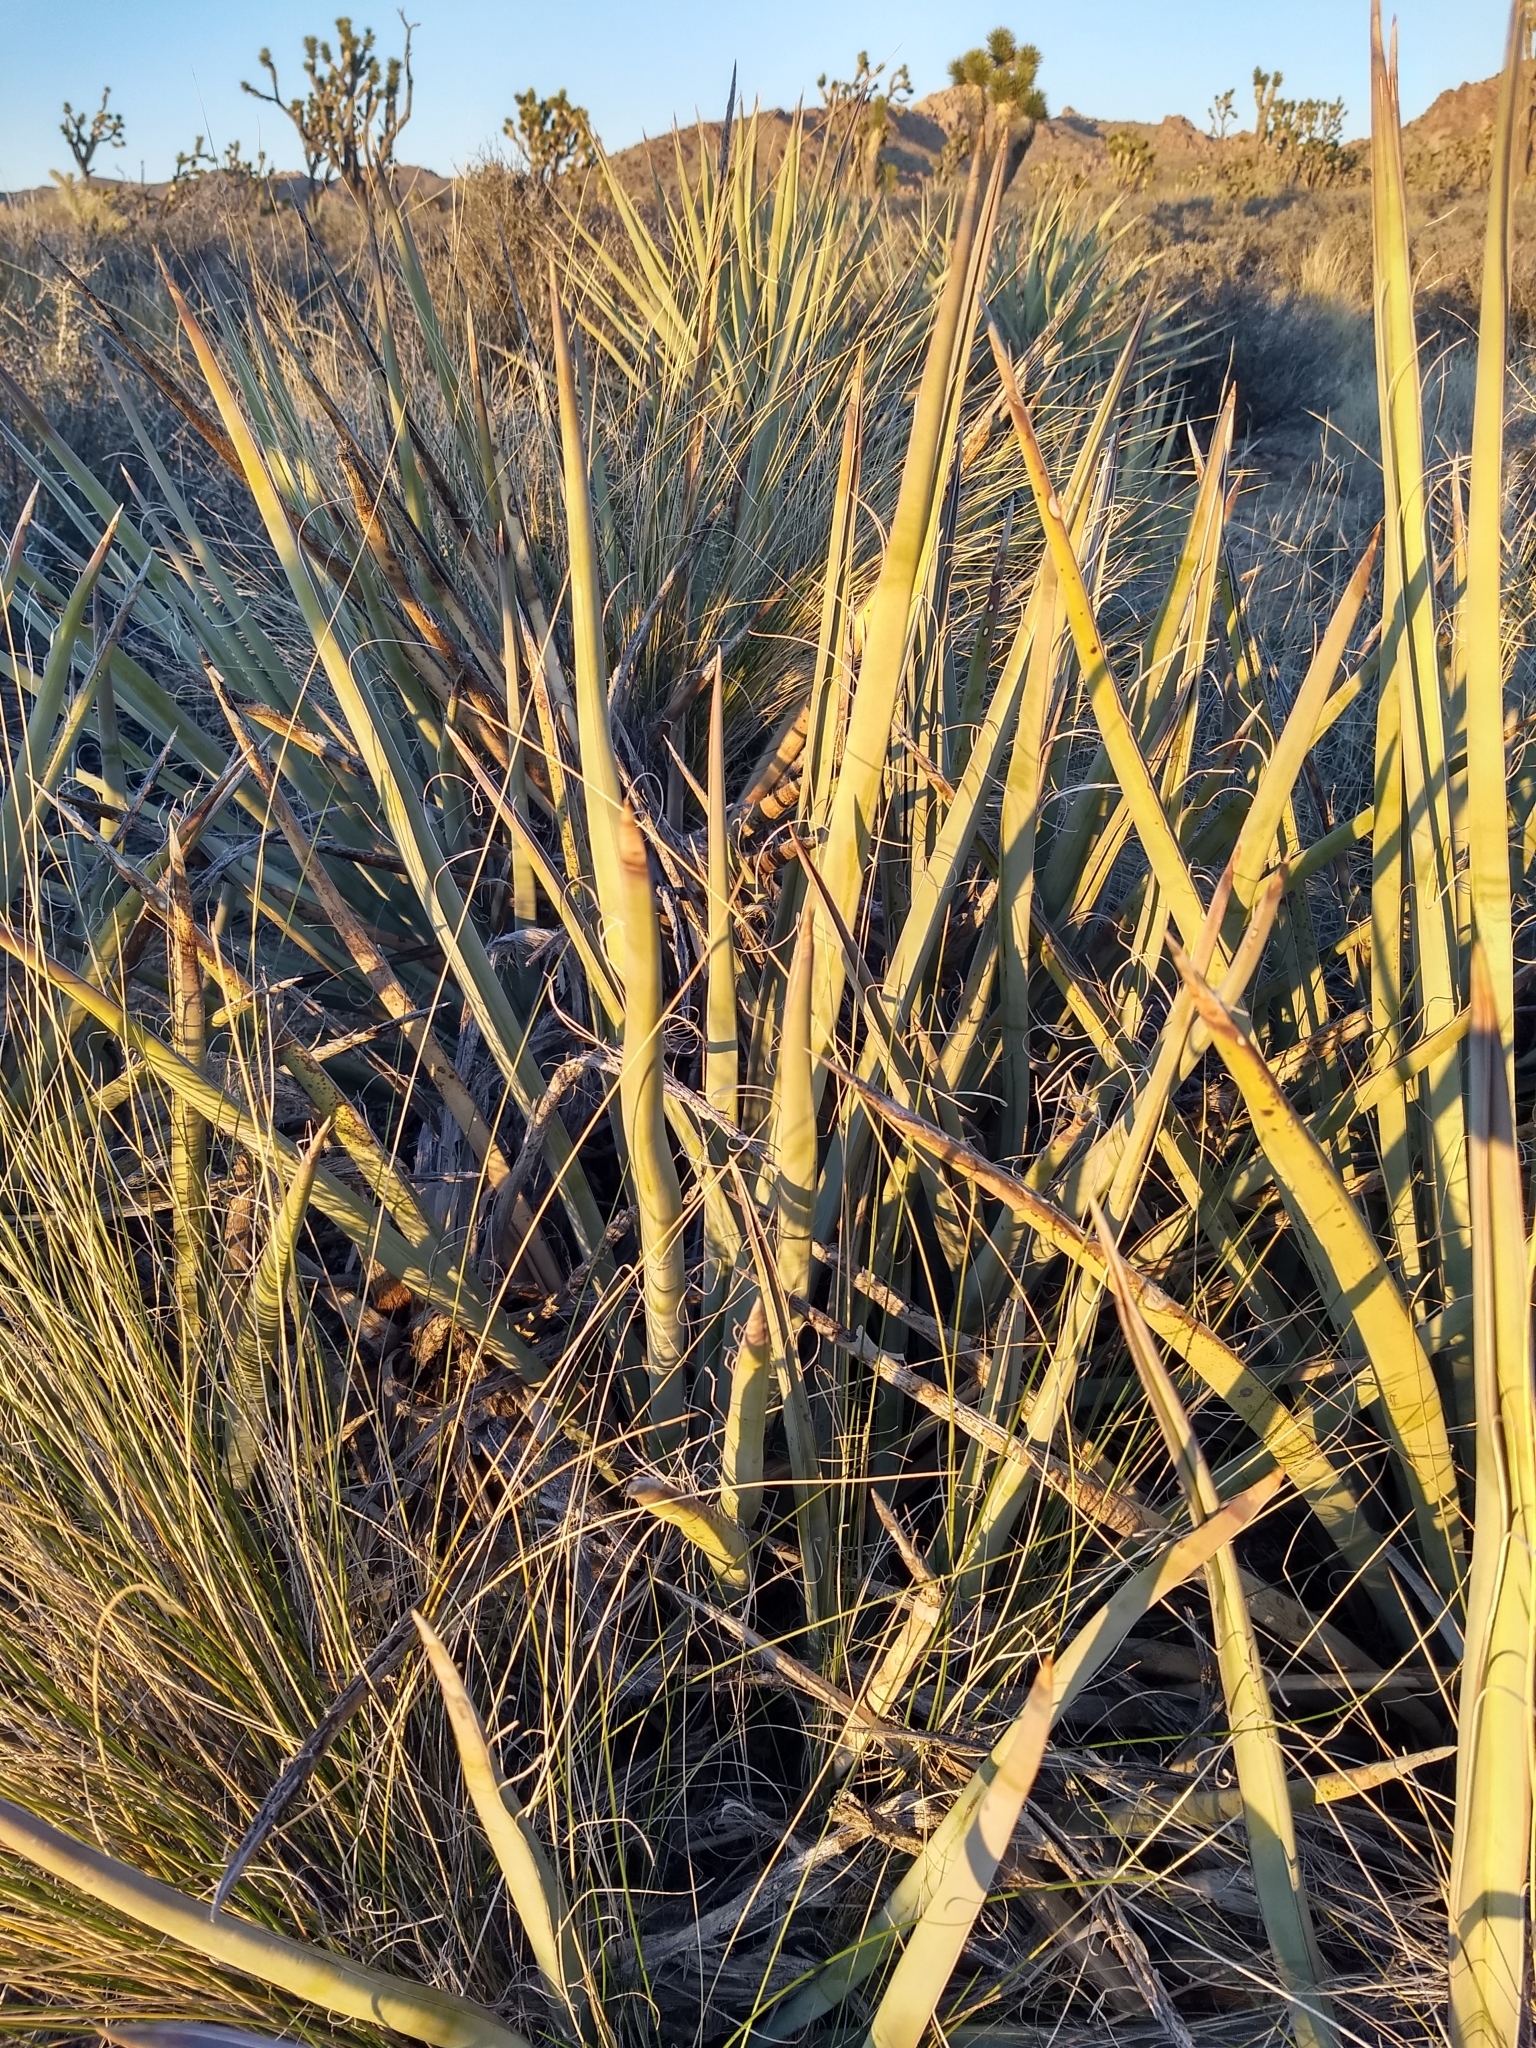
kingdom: Plantae
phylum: Tracheophyta
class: Liliopsida
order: Asparagales
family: Asparagaceae
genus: Yucca
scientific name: Yucca baccata
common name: Banana yucca
